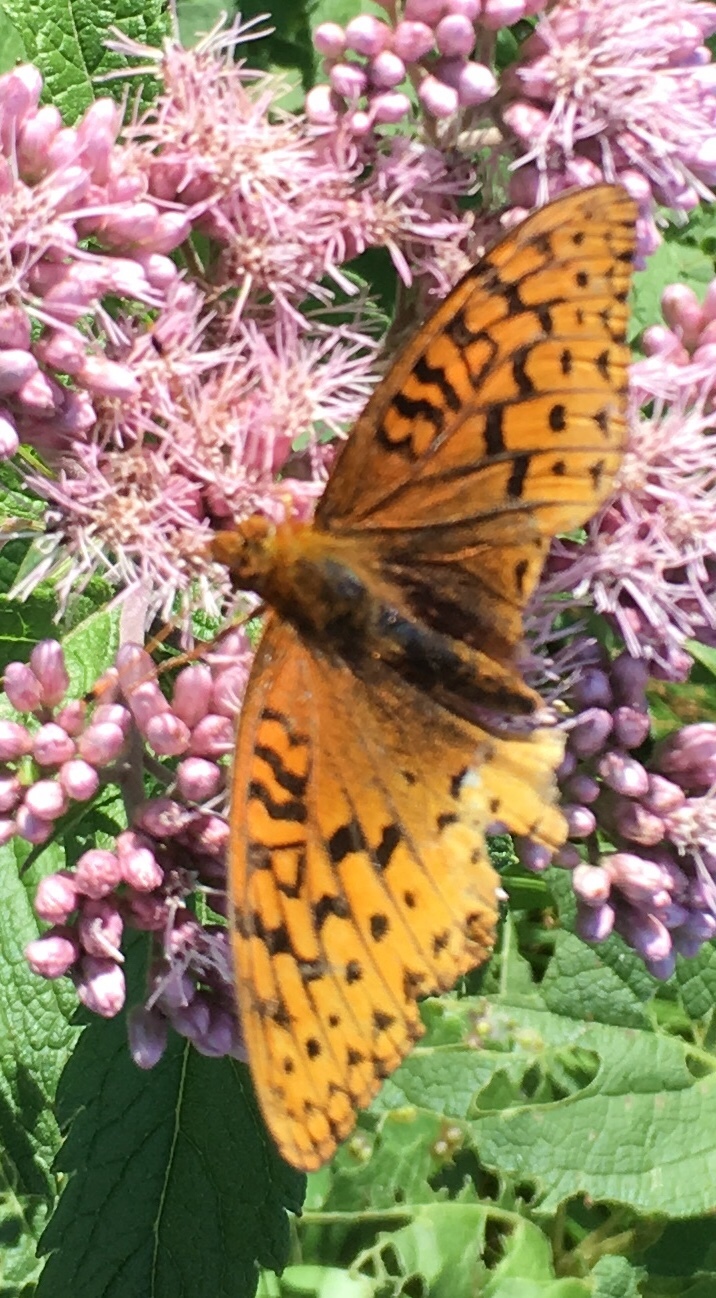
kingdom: Animalia
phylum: Arthropoda
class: Insecta
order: Lepidoptera
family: Nymphalidae
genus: Speyeria
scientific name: Speyeria cybele
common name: Great spangled fritillary
